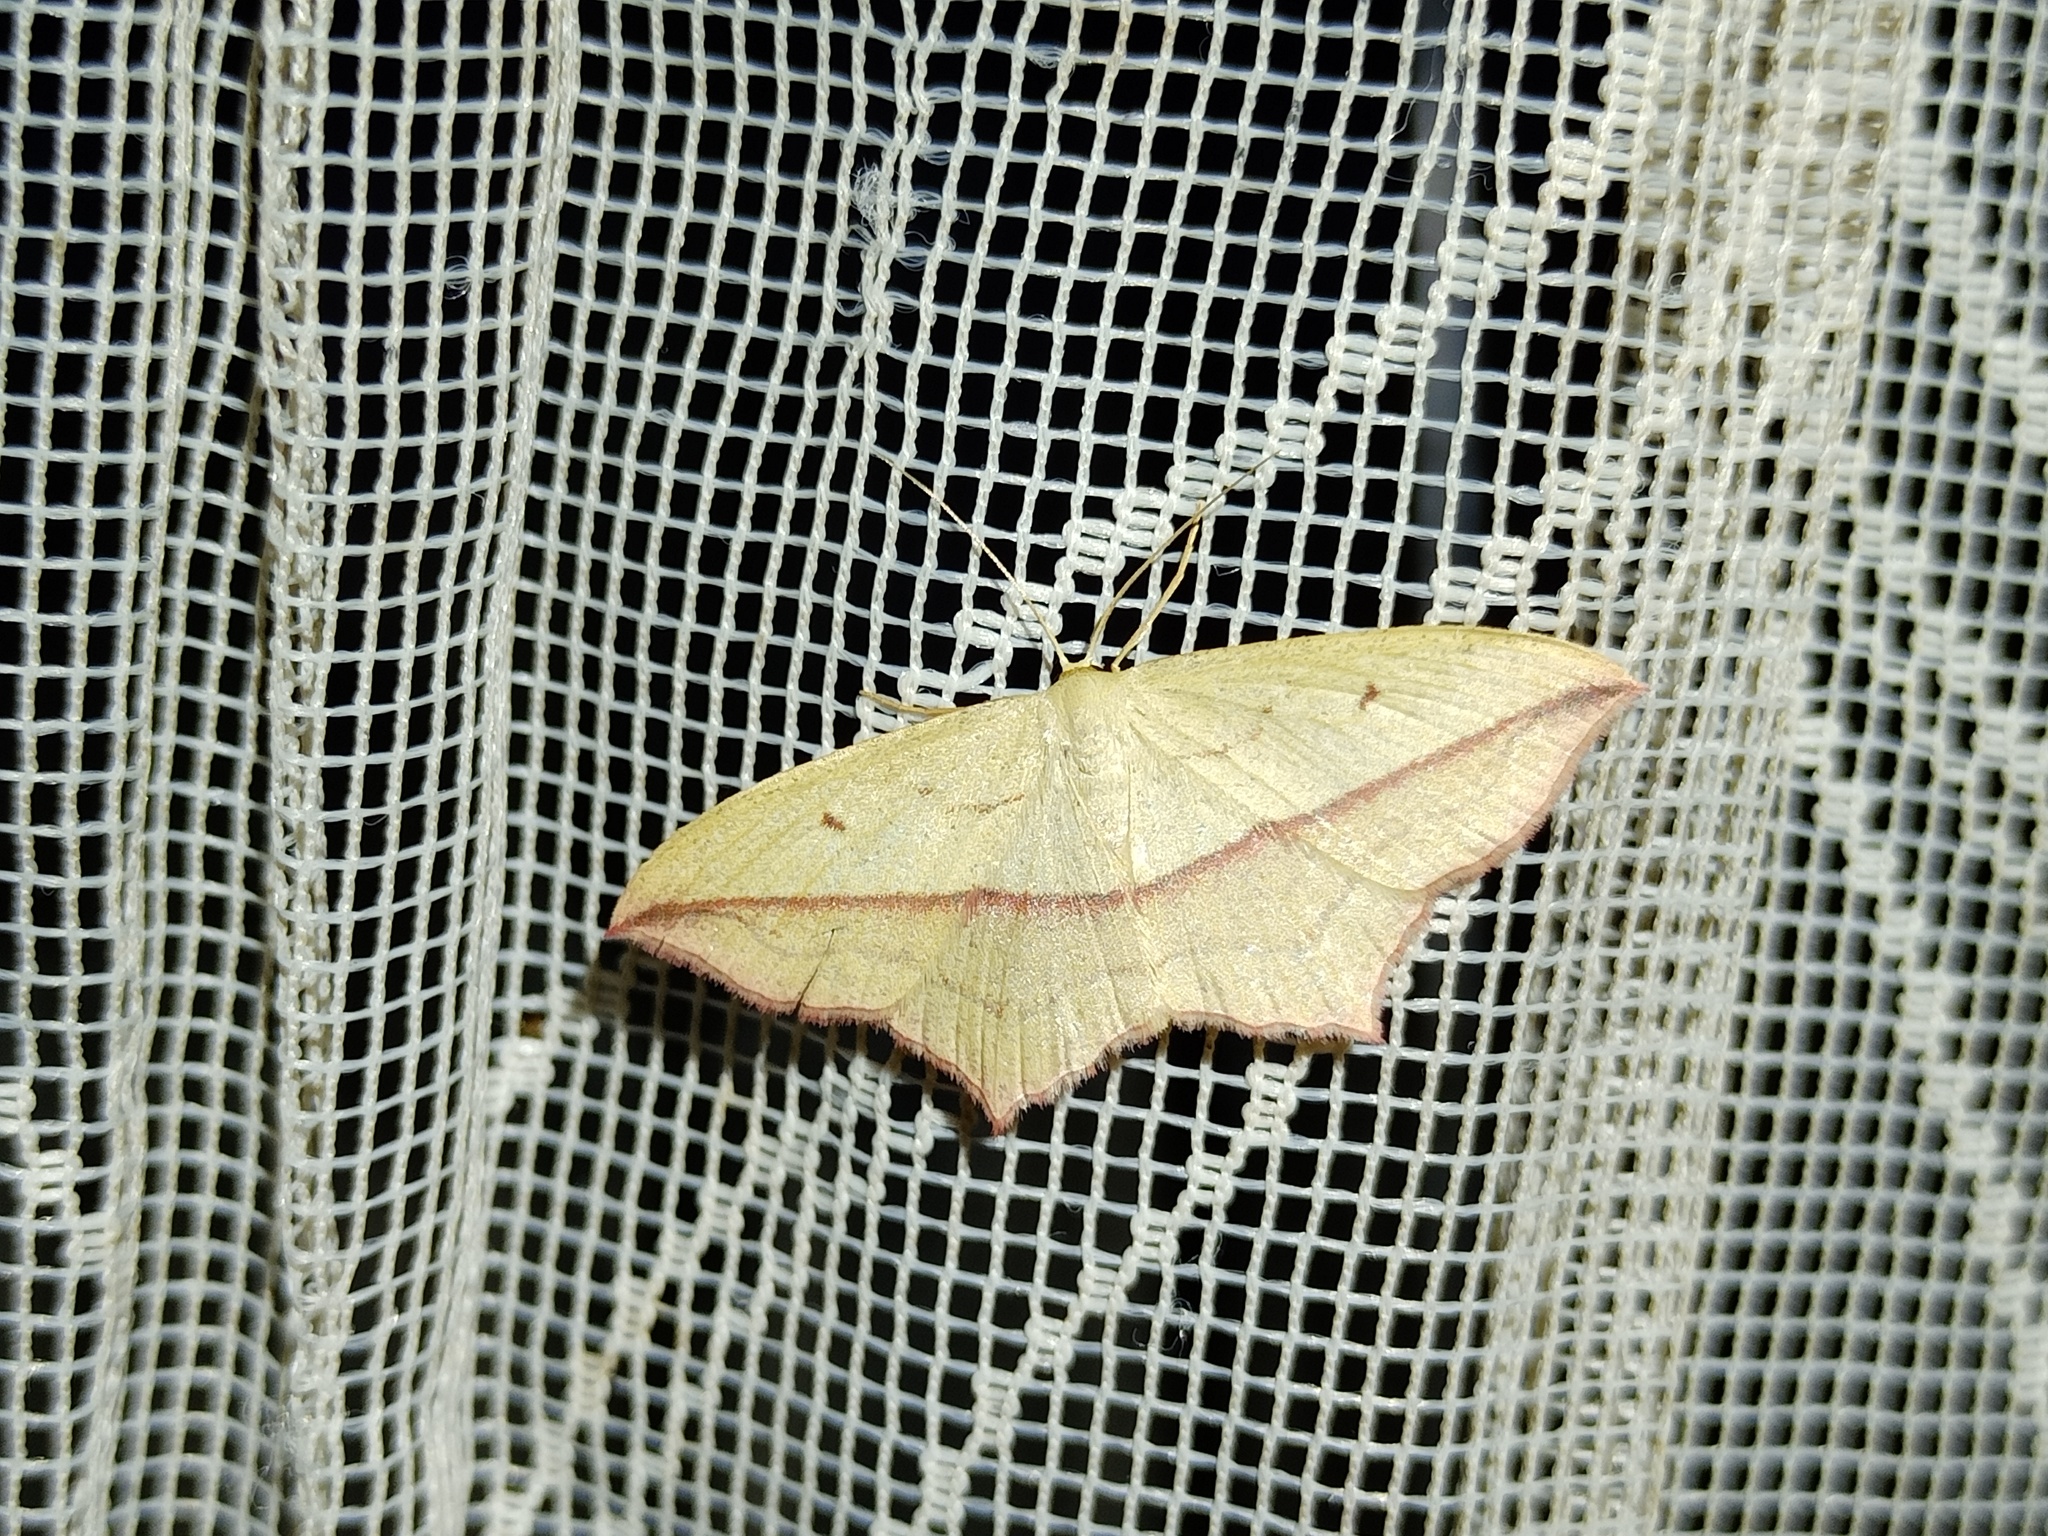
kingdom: Animalia
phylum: Arthropoda
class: Insecta
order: Lepidoptera
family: Geometridae
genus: Timandra
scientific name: Timandra comae
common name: Blood-vein
